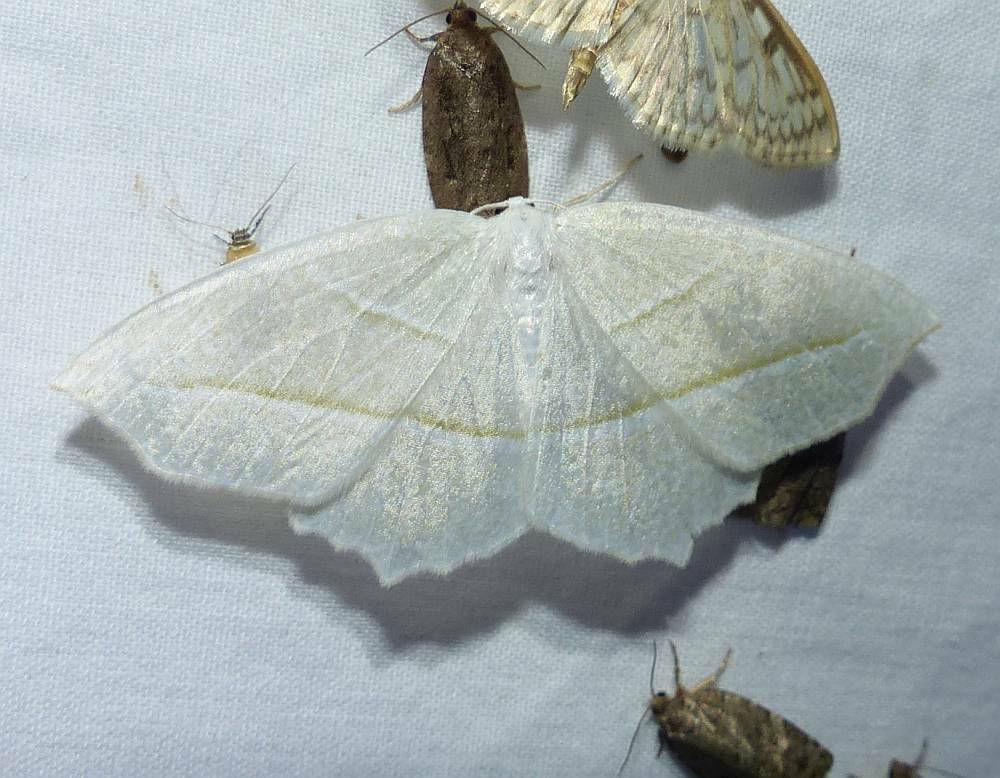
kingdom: Animalia
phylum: Arthropoda
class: Insecta
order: Lepidoptera
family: Geometridae
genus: Campaea
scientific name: Campaea perlata
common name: Fringed looper
